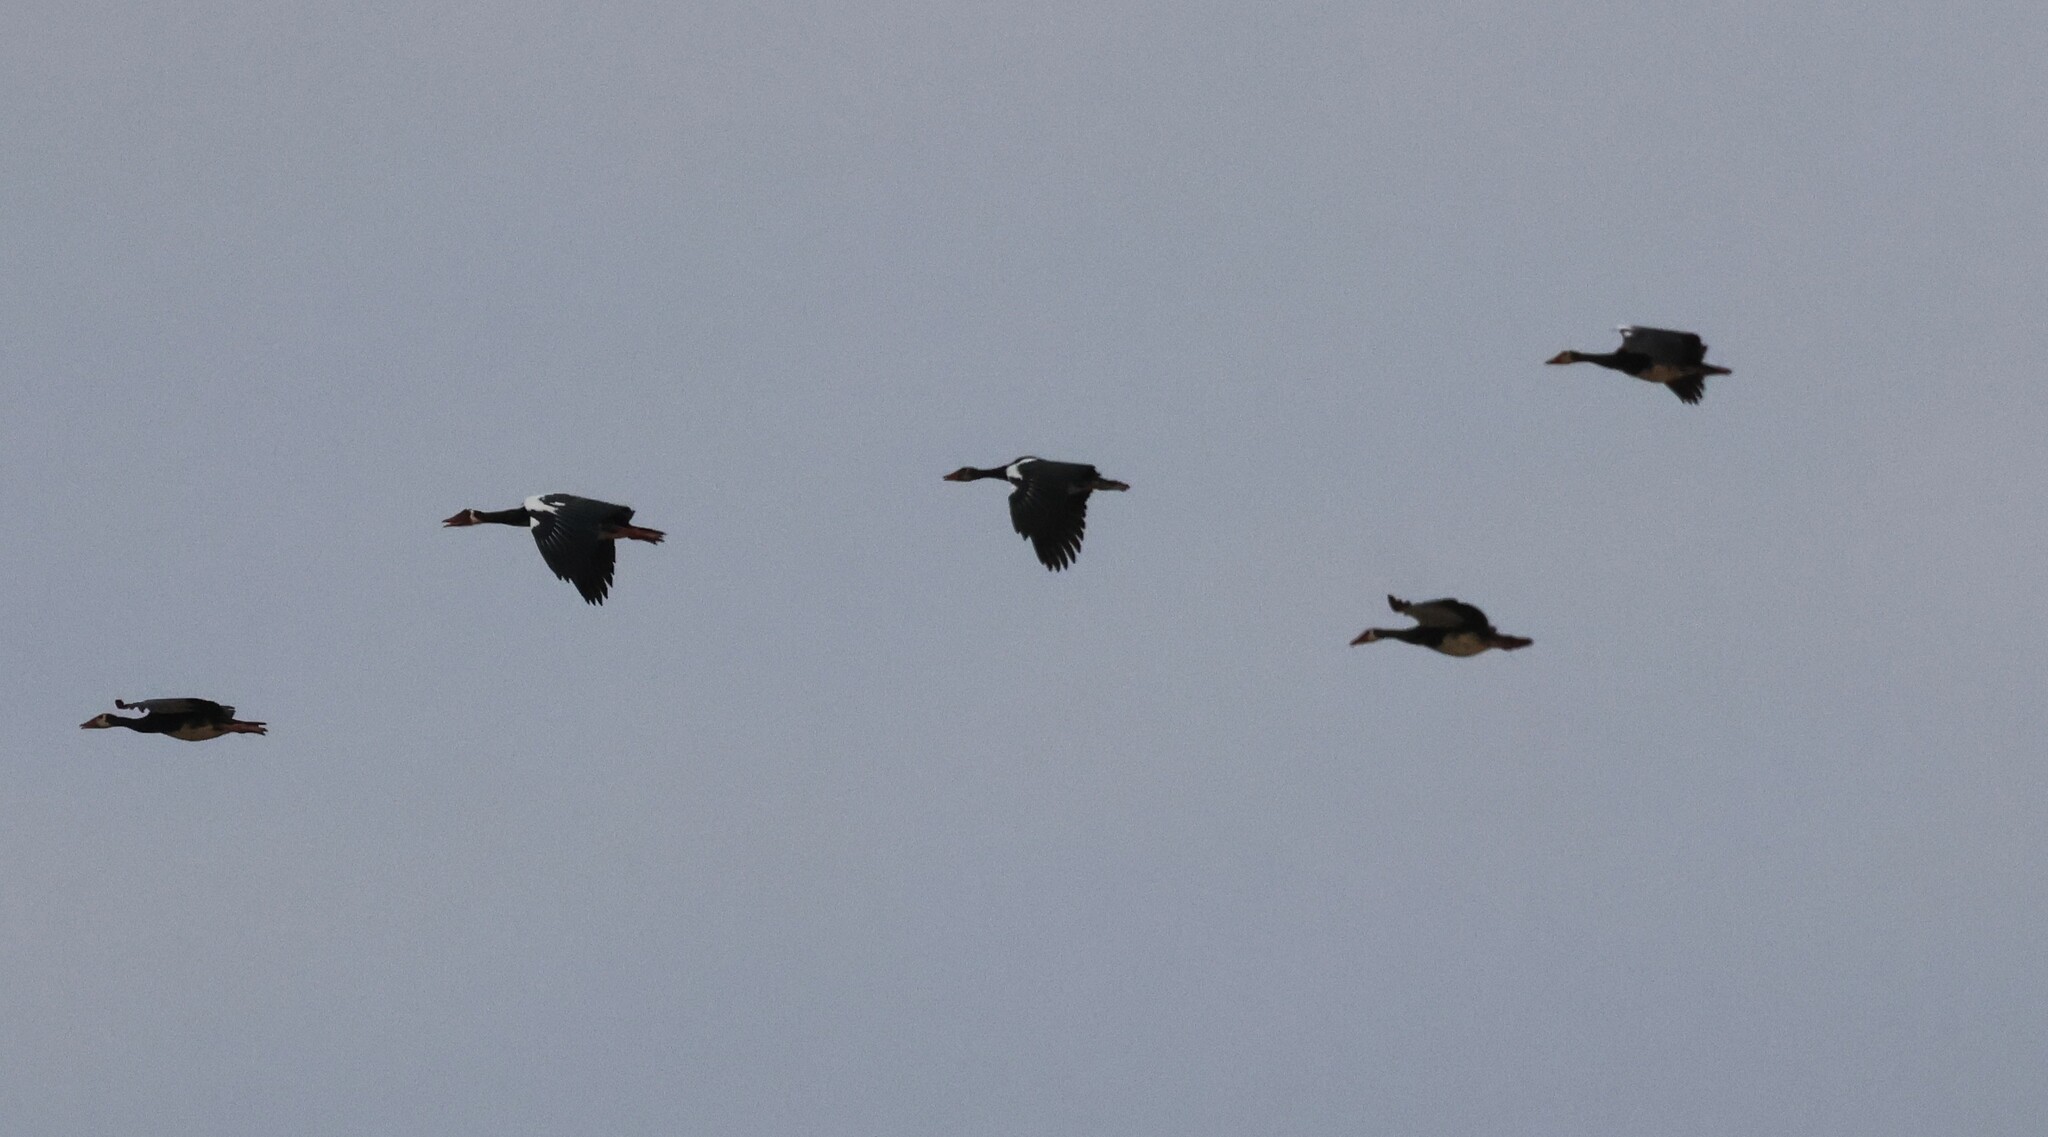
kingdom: Animalia
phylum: Chordata
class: Aves
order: Anseriformes
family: Anatidae
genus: Plectropterus
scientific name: Plectropterus gambensis
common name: Spur-winged goose
